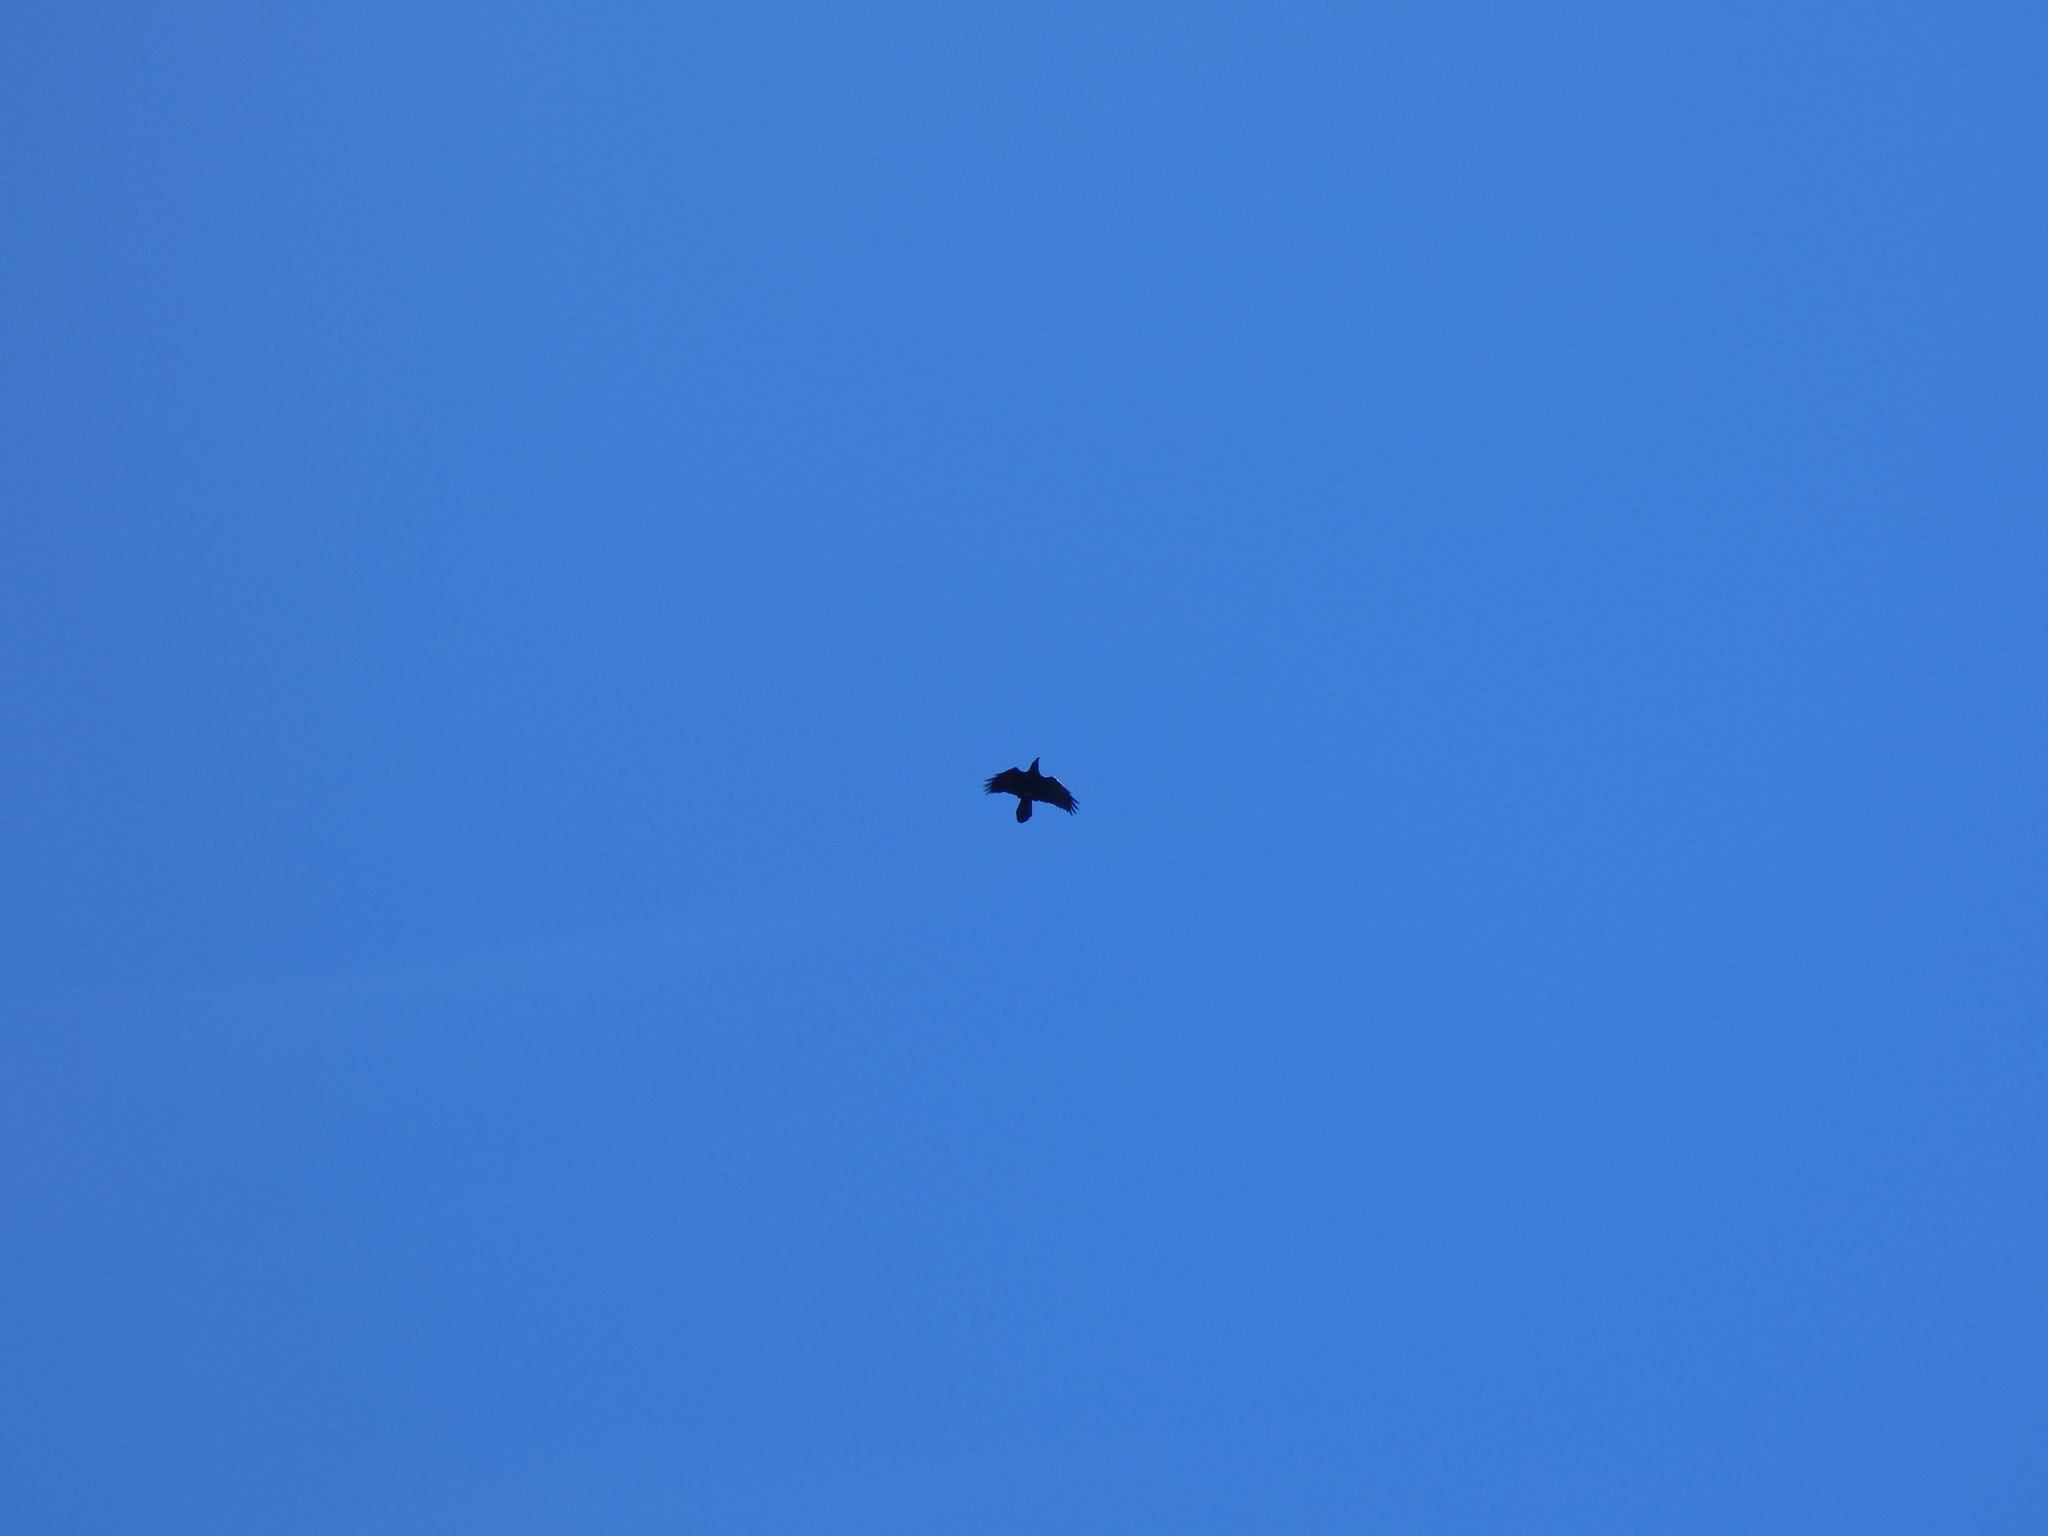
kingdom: Animalia
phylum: Chordata
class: Aves
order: Passeriformes
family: Corvidae
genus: Corvus
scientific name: Corvus corax
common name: Common raven
